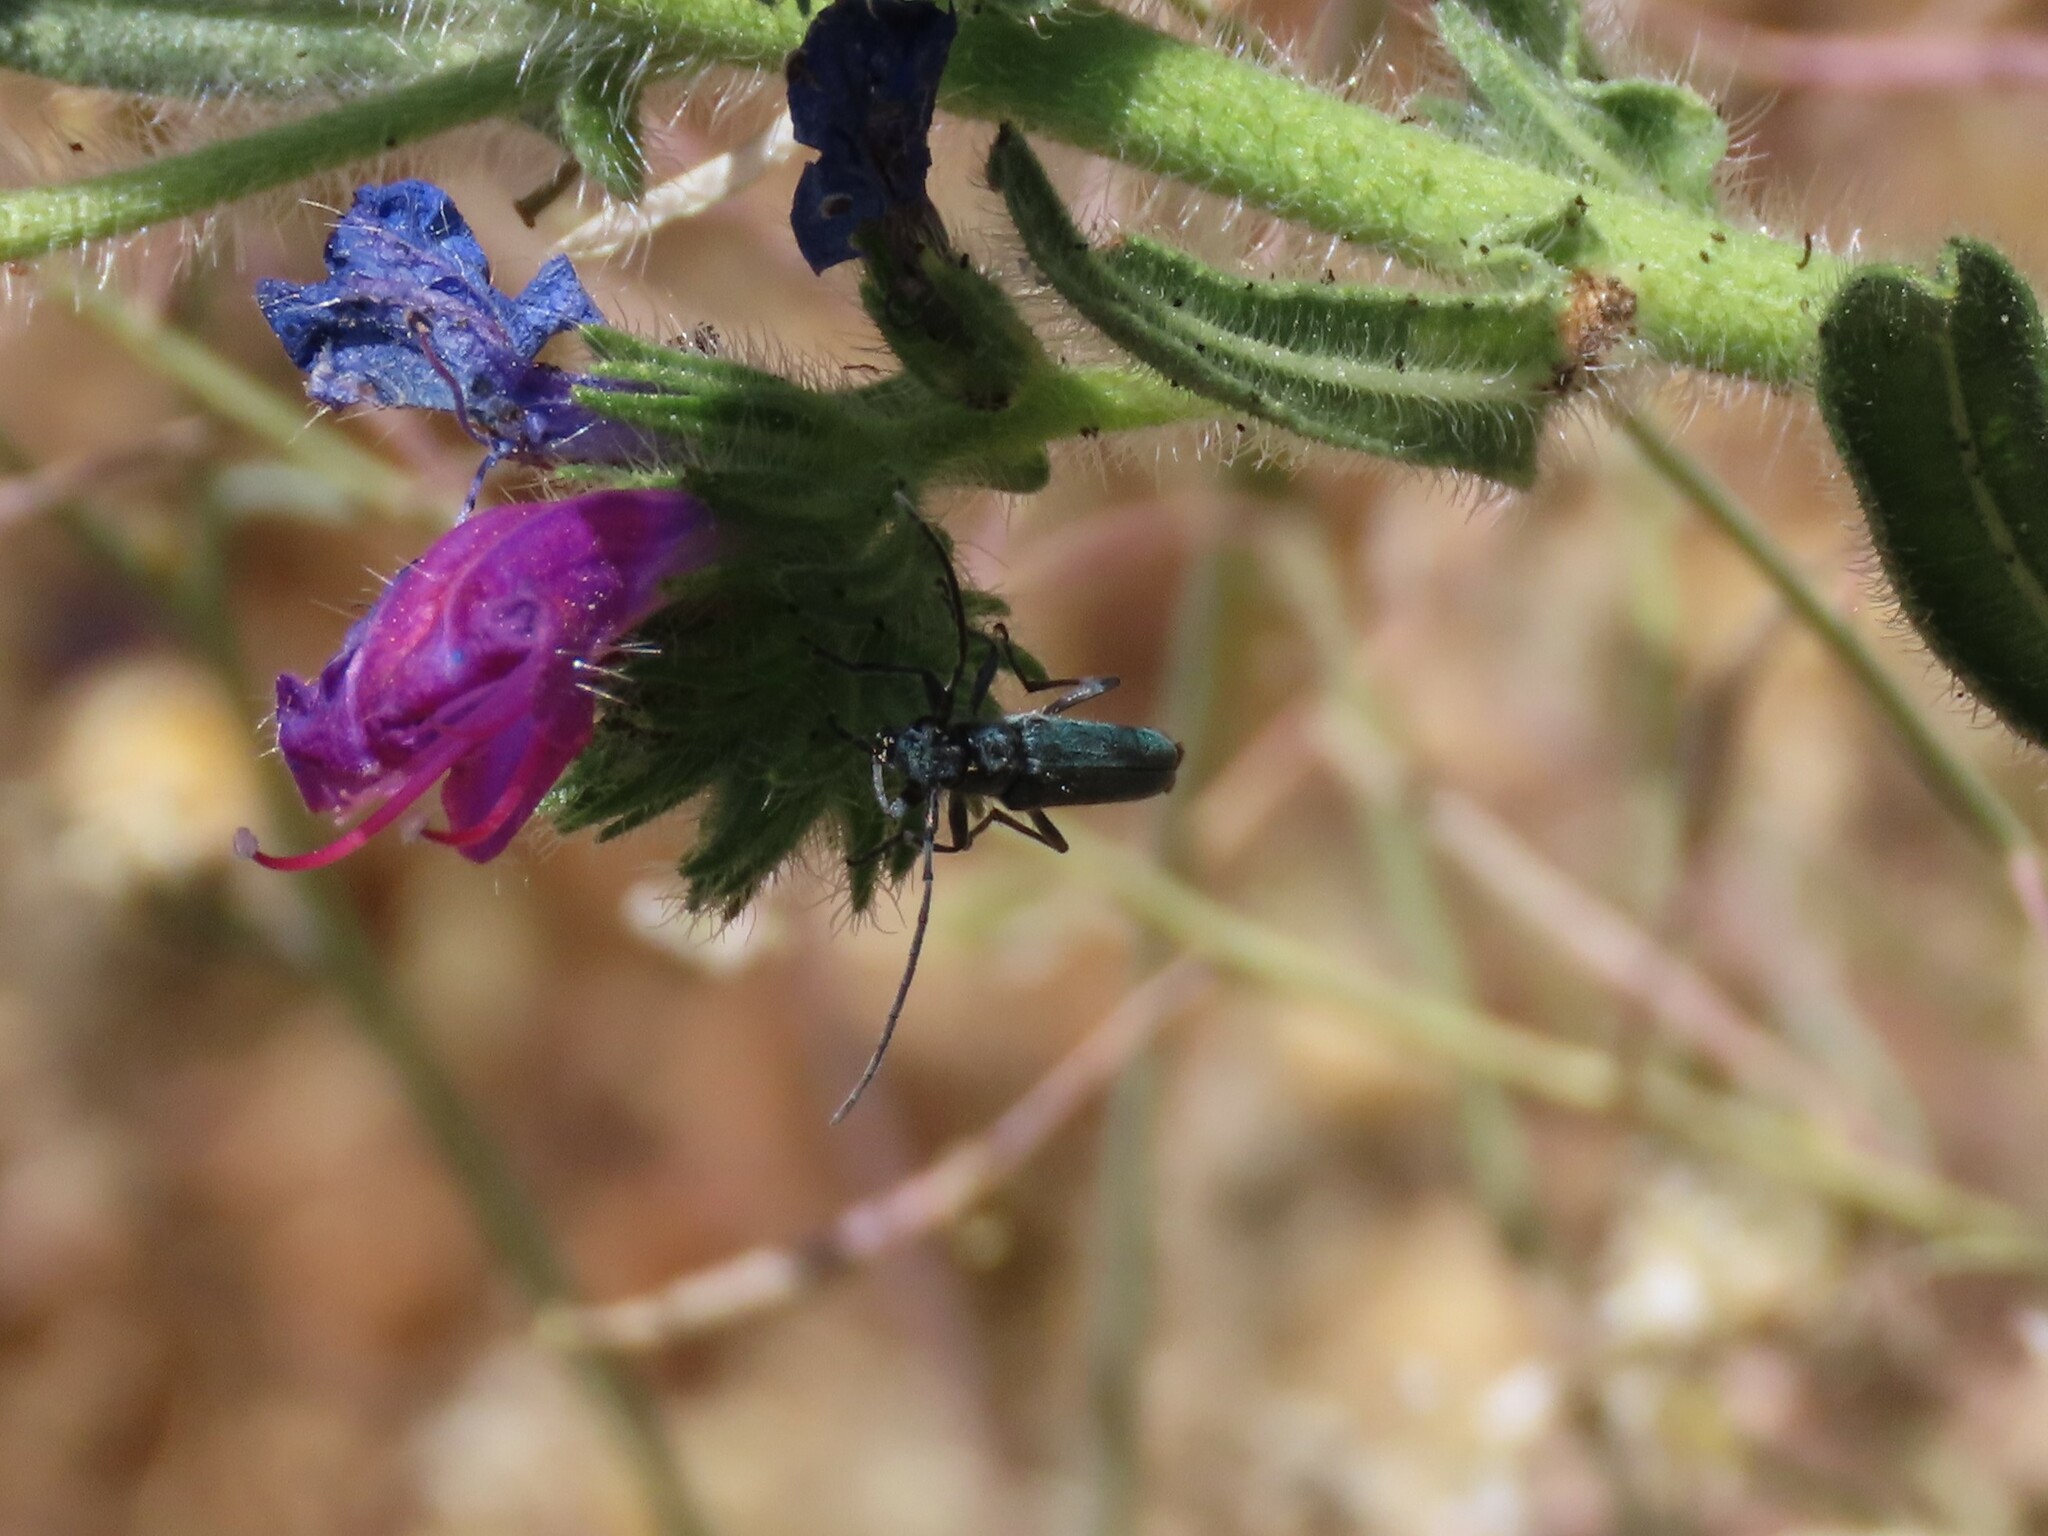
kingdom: Animalia
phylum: Arthropoda
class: Insecta
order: Coleoptera
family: Cerambycidae
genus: Phytoecia
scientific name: Phytoecia coerulescens
